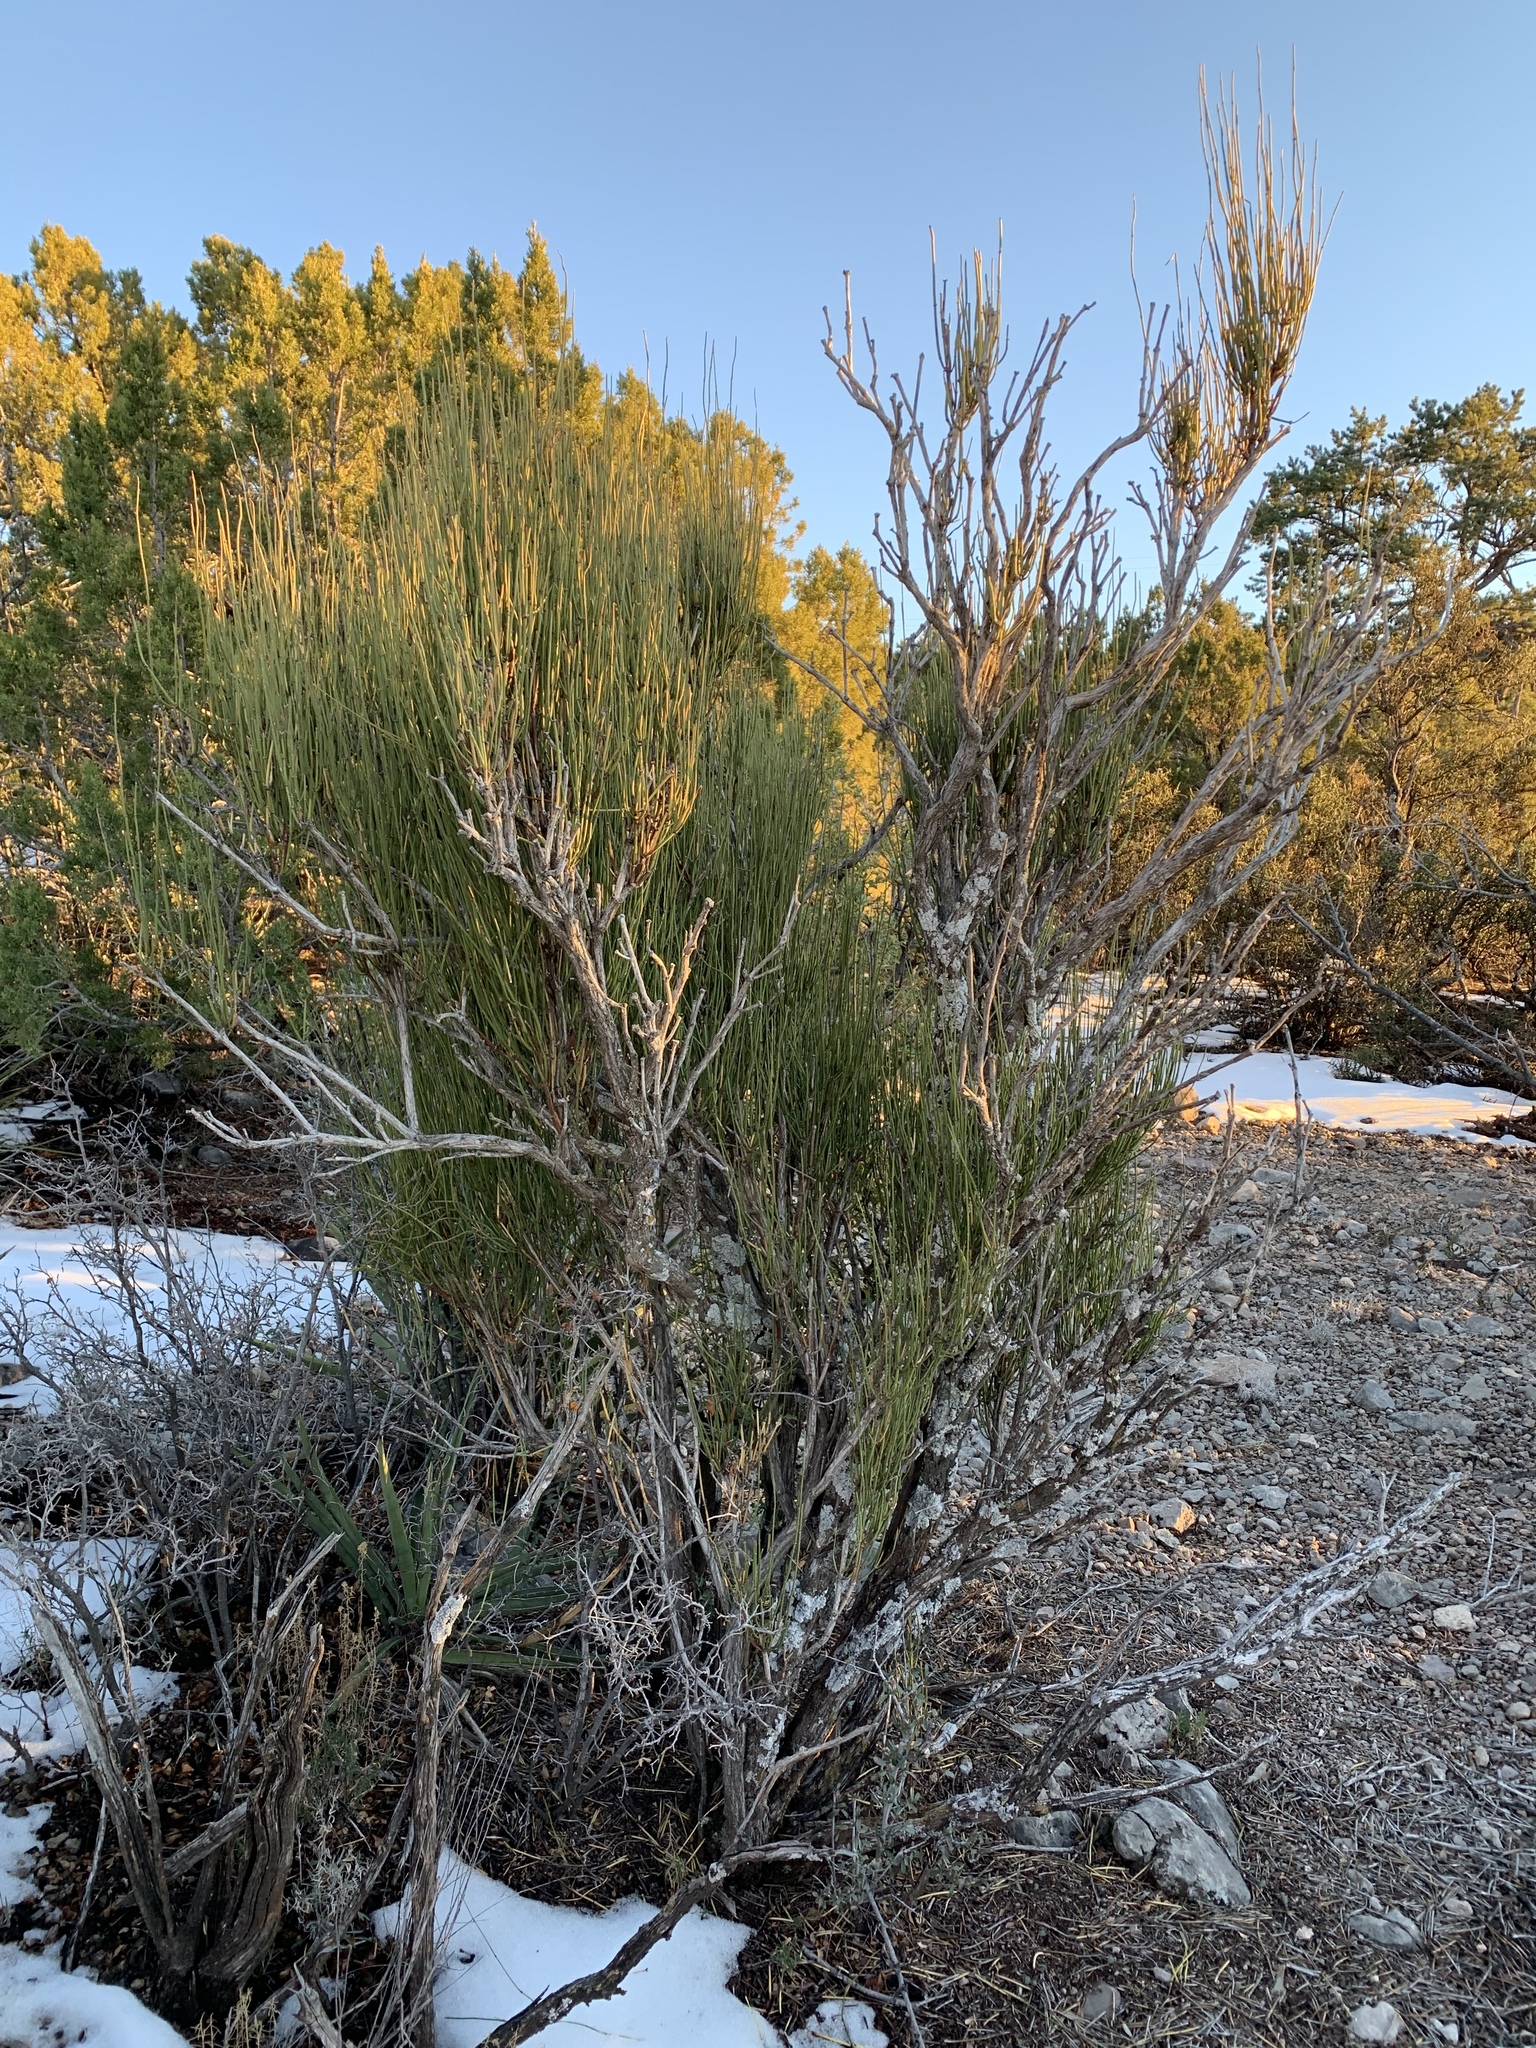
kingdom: Plantae
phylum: Tracheophyta
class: Gnetopsida
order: Ephedrales
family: Ephedraceae
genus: Ephedra
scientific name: Ephedra viridis
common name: Green ephedra
